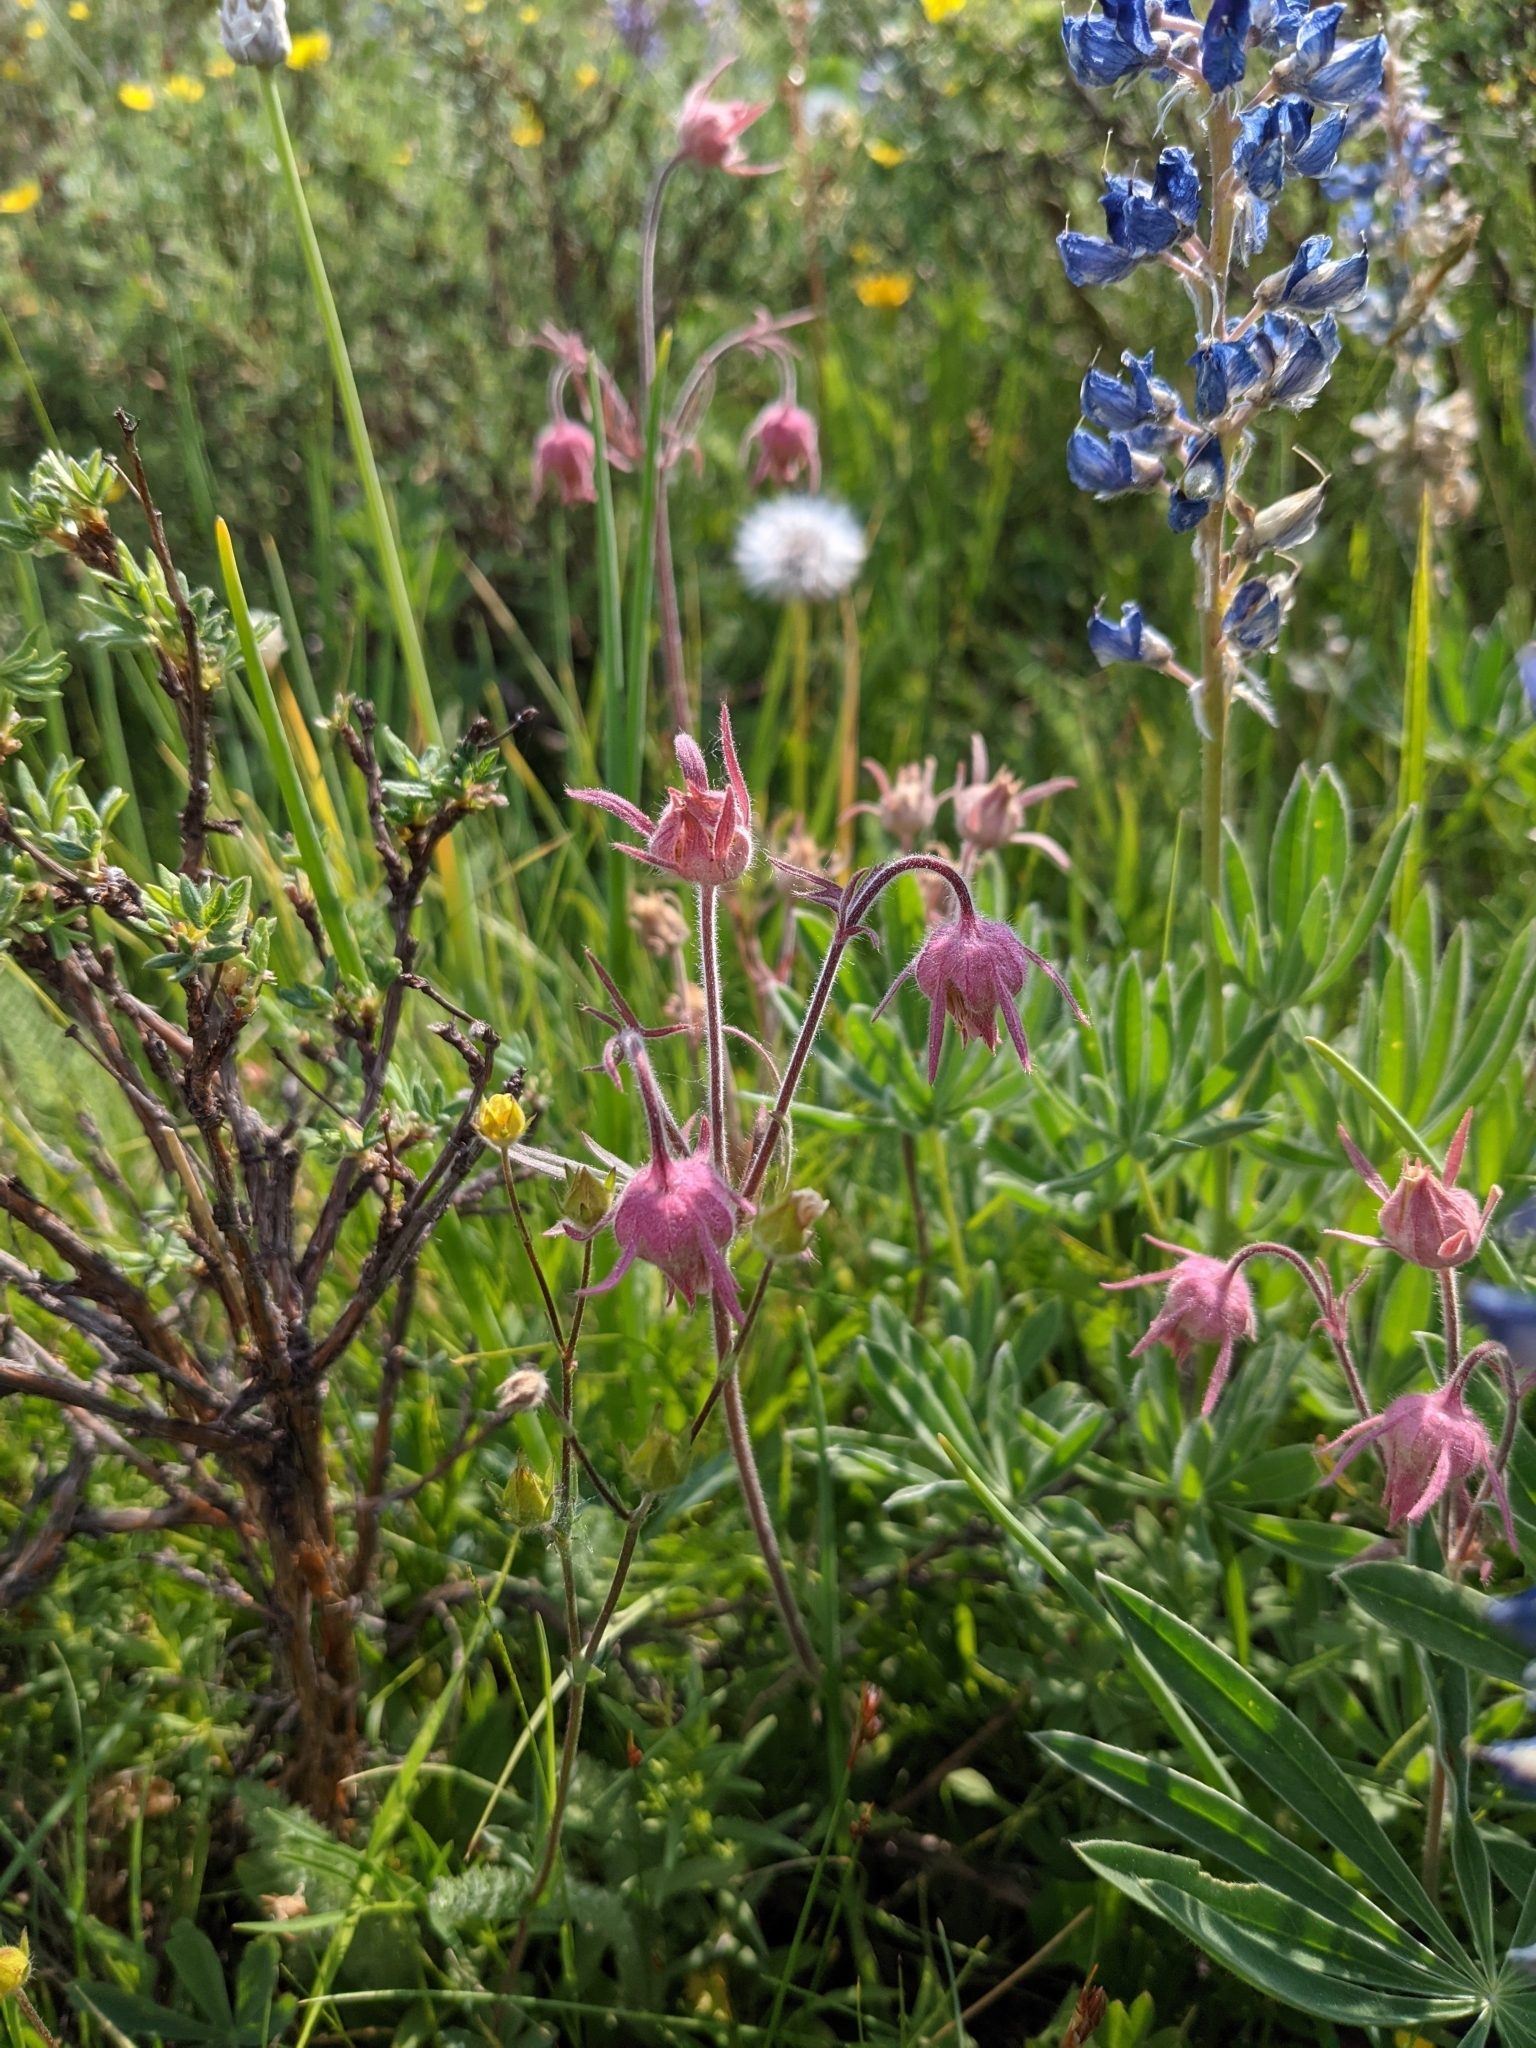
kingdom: Plantae
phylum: Tracheophyta
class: Magnoliopsida
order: Rosales
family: Rosaceae
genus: Geum
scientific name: Geum triflorum
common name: Old man's whiskers
